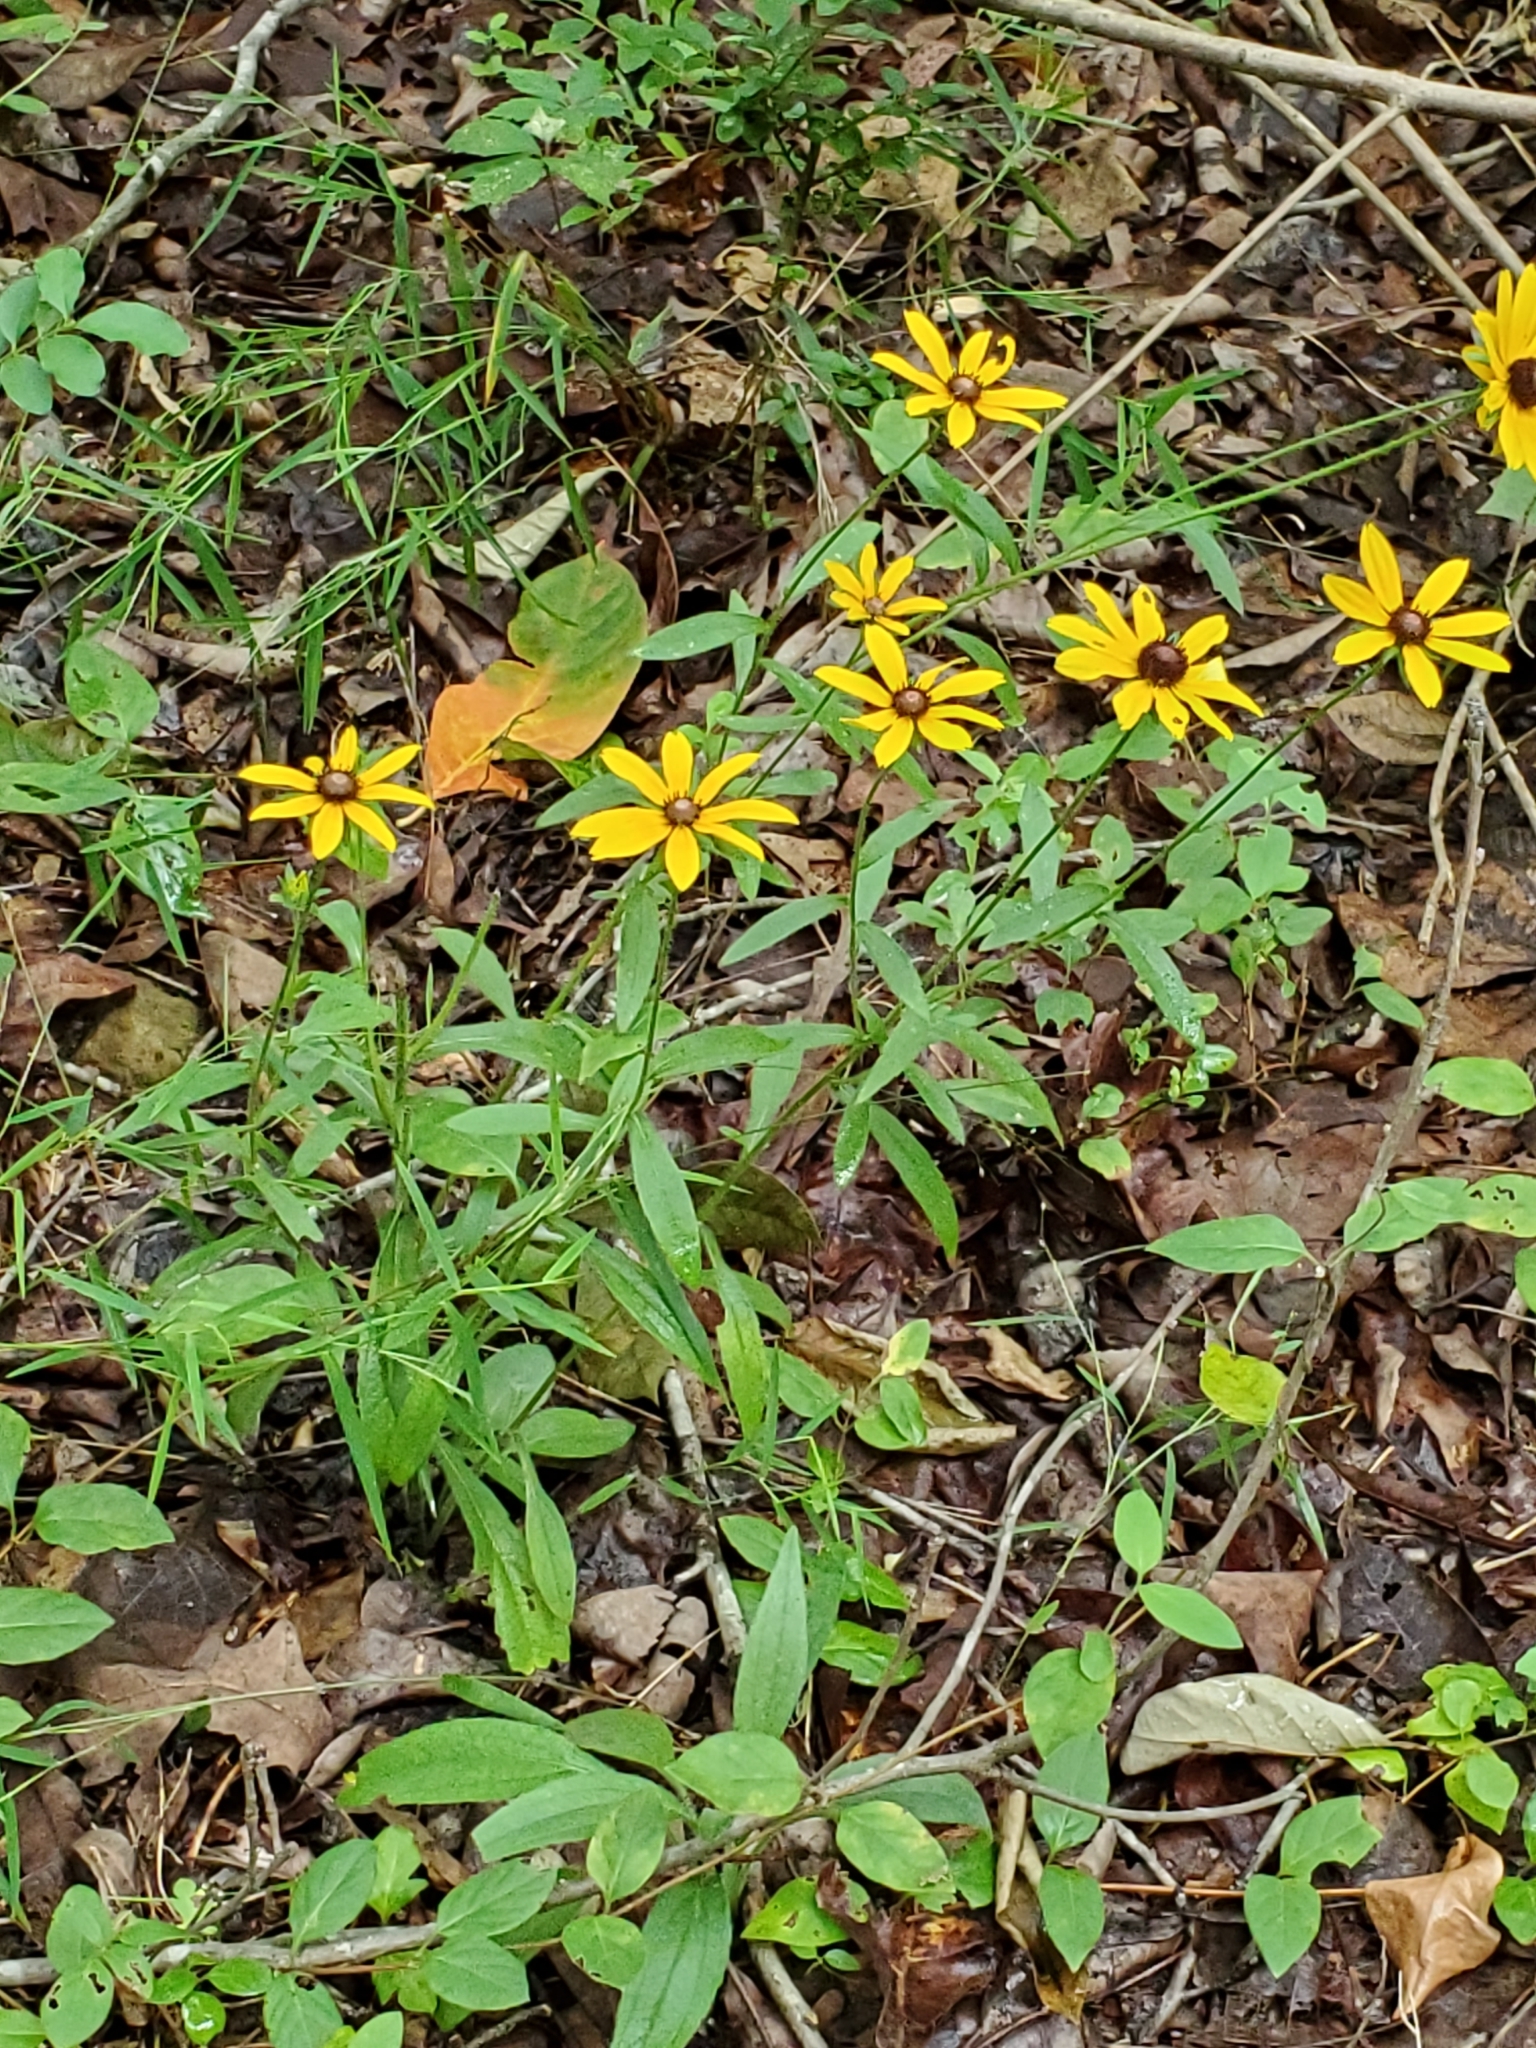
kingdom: Plantae
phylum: Tracheophyta
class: Magnoliopsida
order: Asterales
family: Asteraceae
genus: Rudbeckia
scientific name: Rudbeckia hirta
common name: Black-eyed-susan
